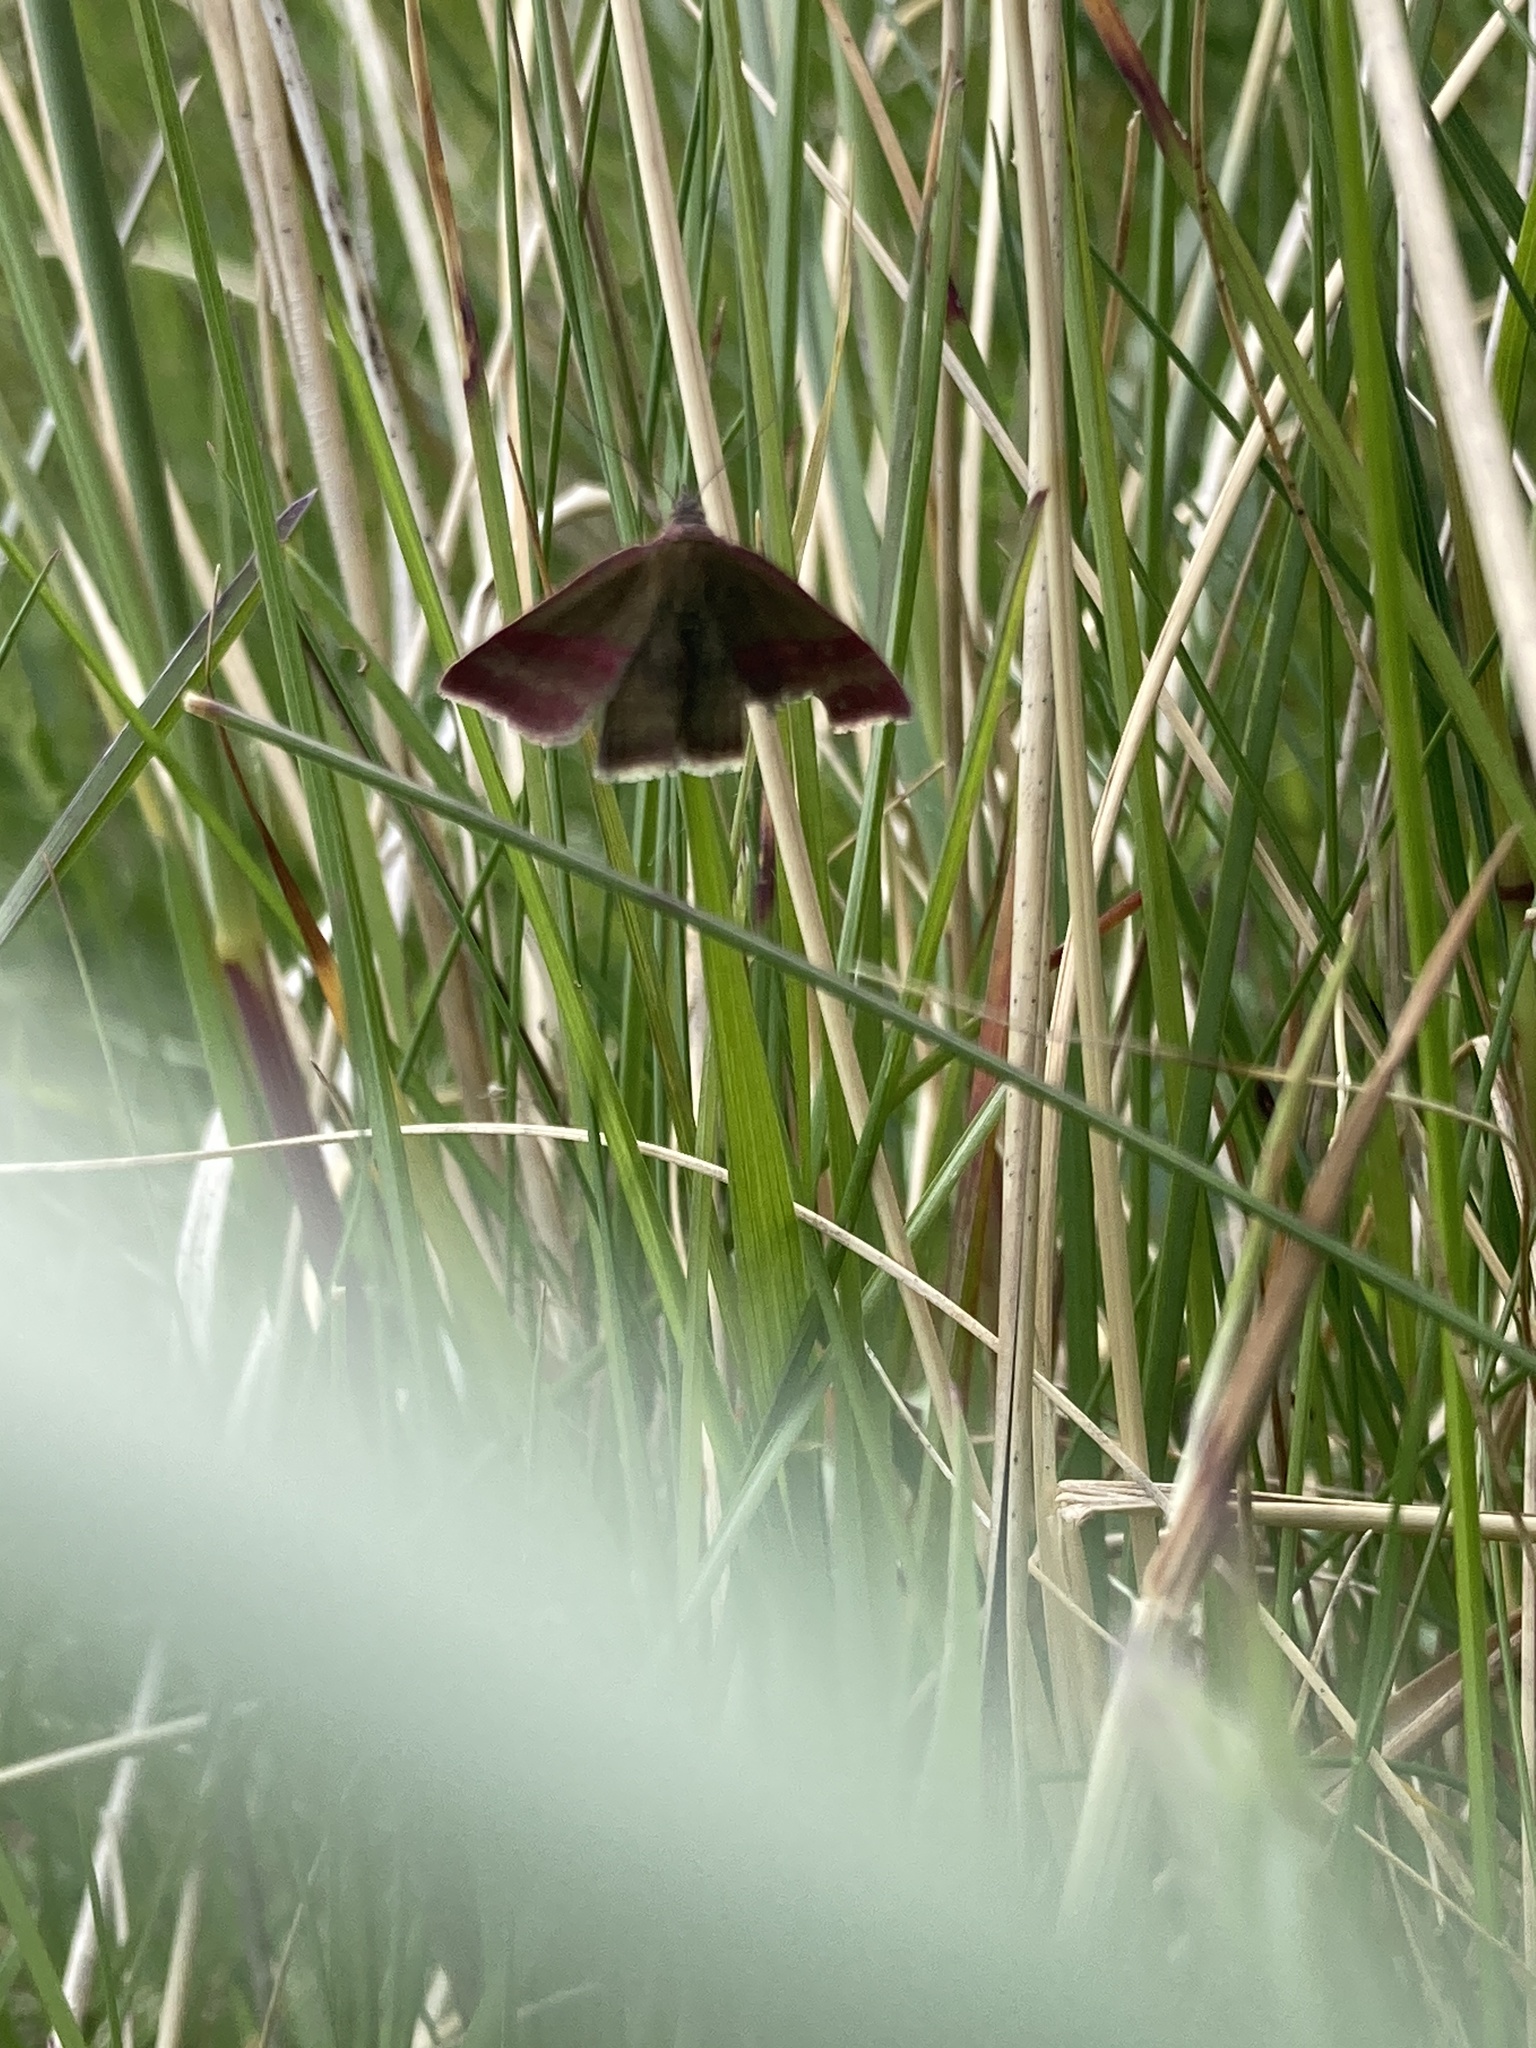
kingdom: Animalia
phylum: Arthropoda
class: Insecta
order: Lepidoptera
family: Erebidae
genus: Phytometra
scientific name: Phytometra viridaria
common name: Small purple-barred
